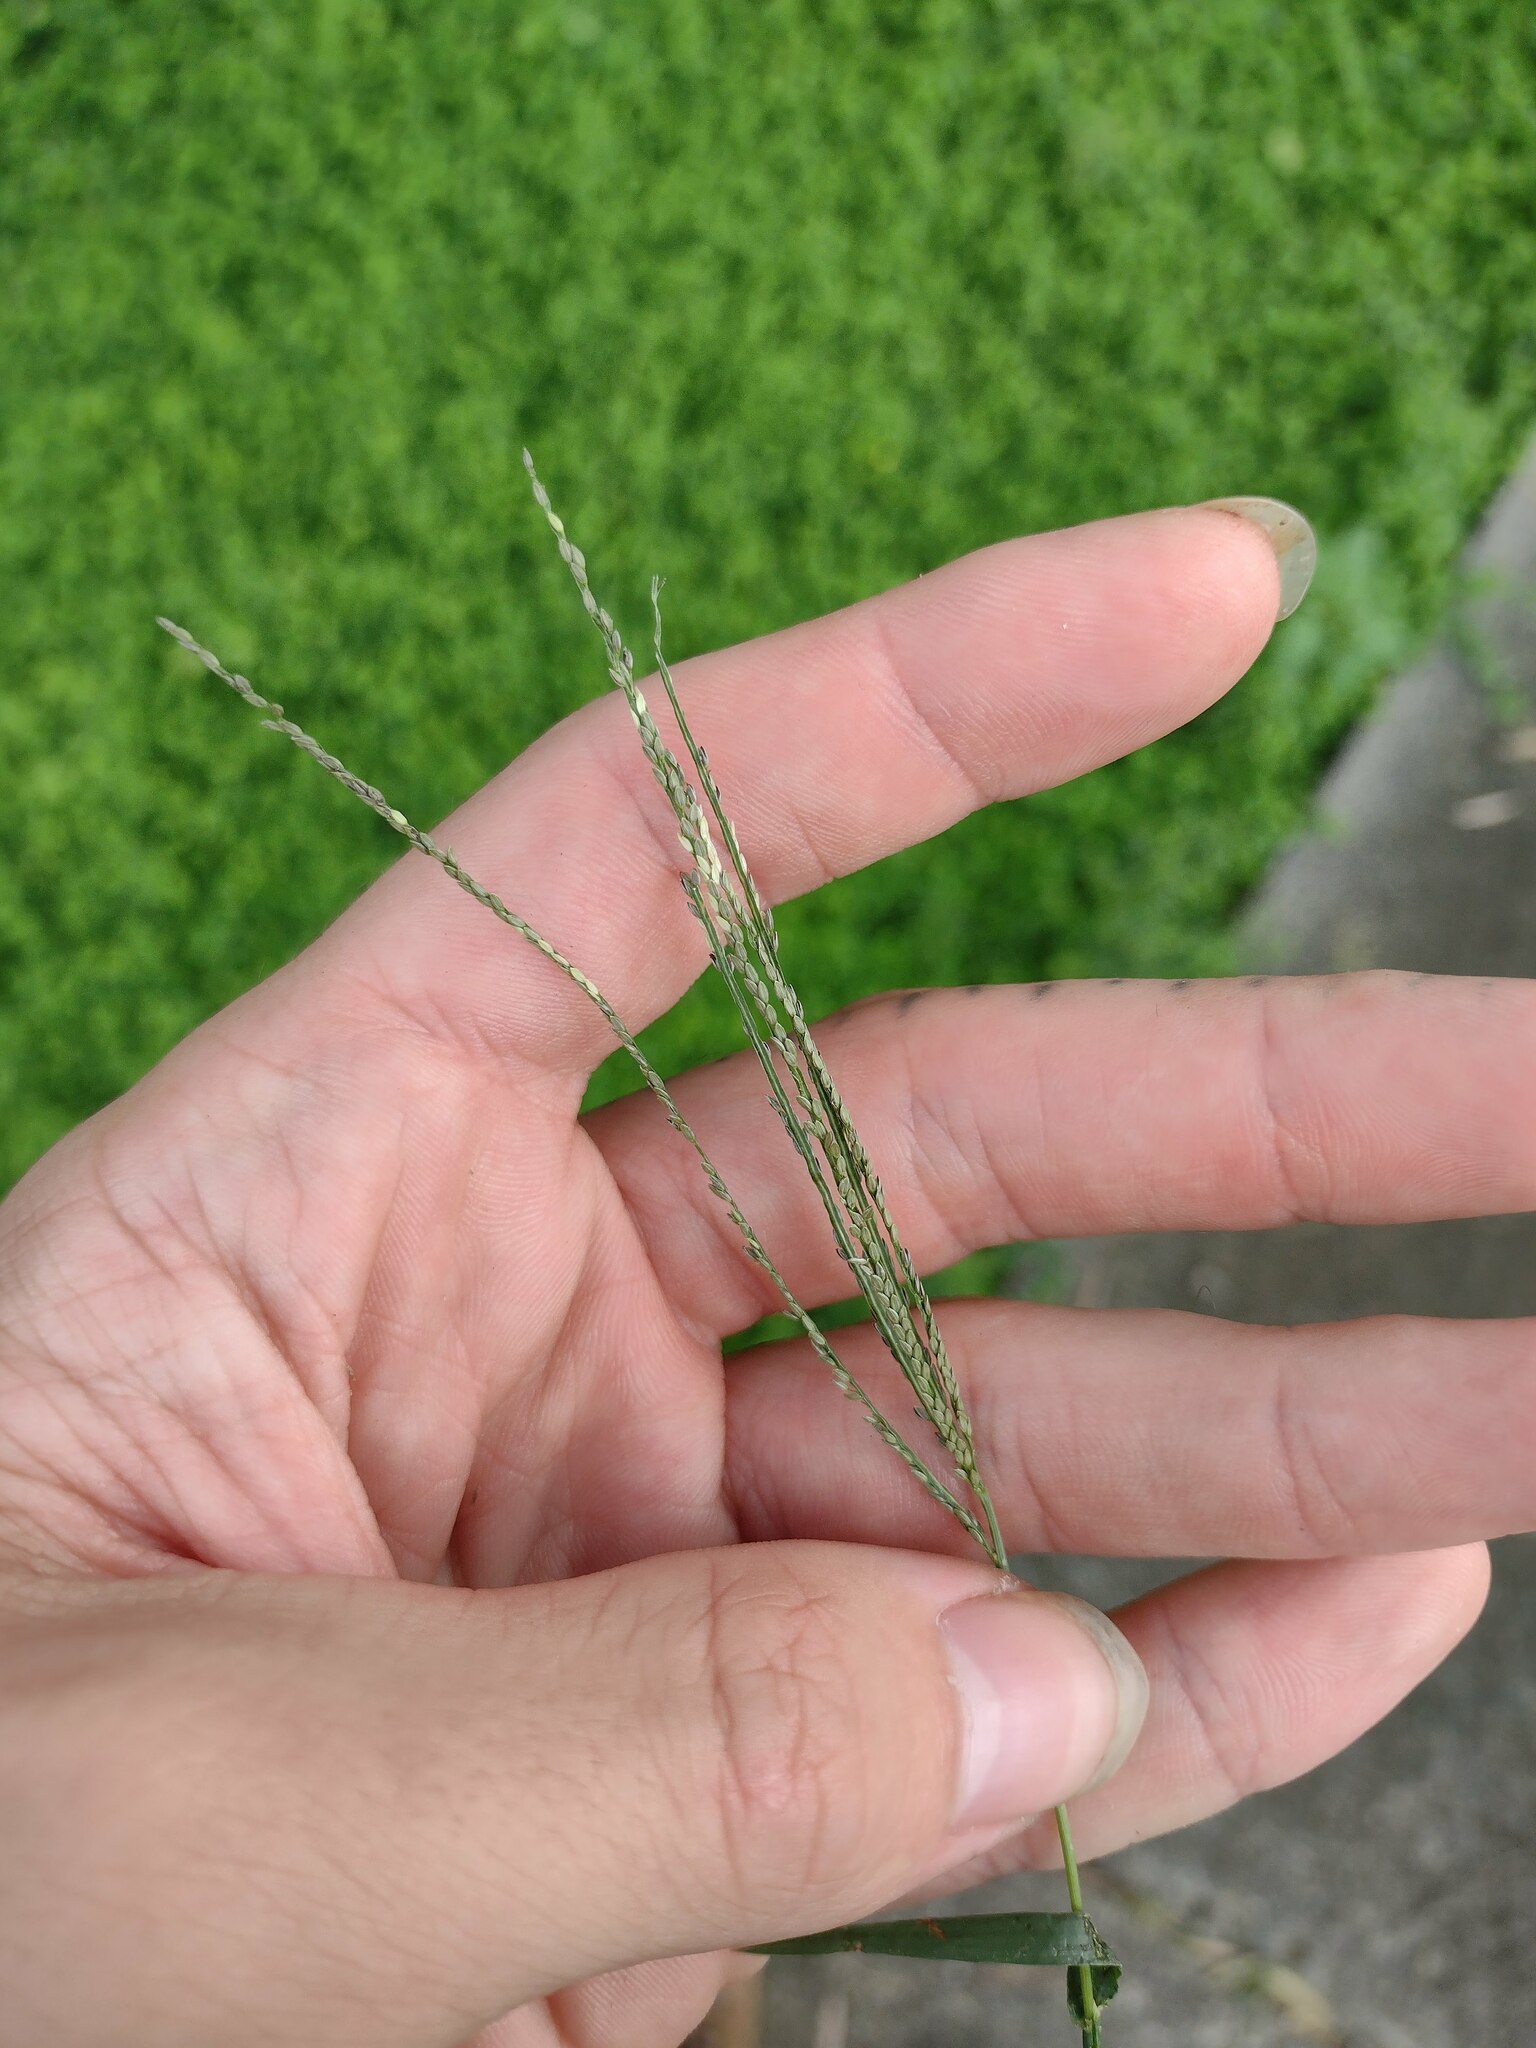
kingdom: Plantae
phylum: Tracheophyta
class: Liliopsida
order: Poales
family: Poaceae
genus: Digitaria
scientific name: Digitaria violascens
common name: Violet crabgrass
